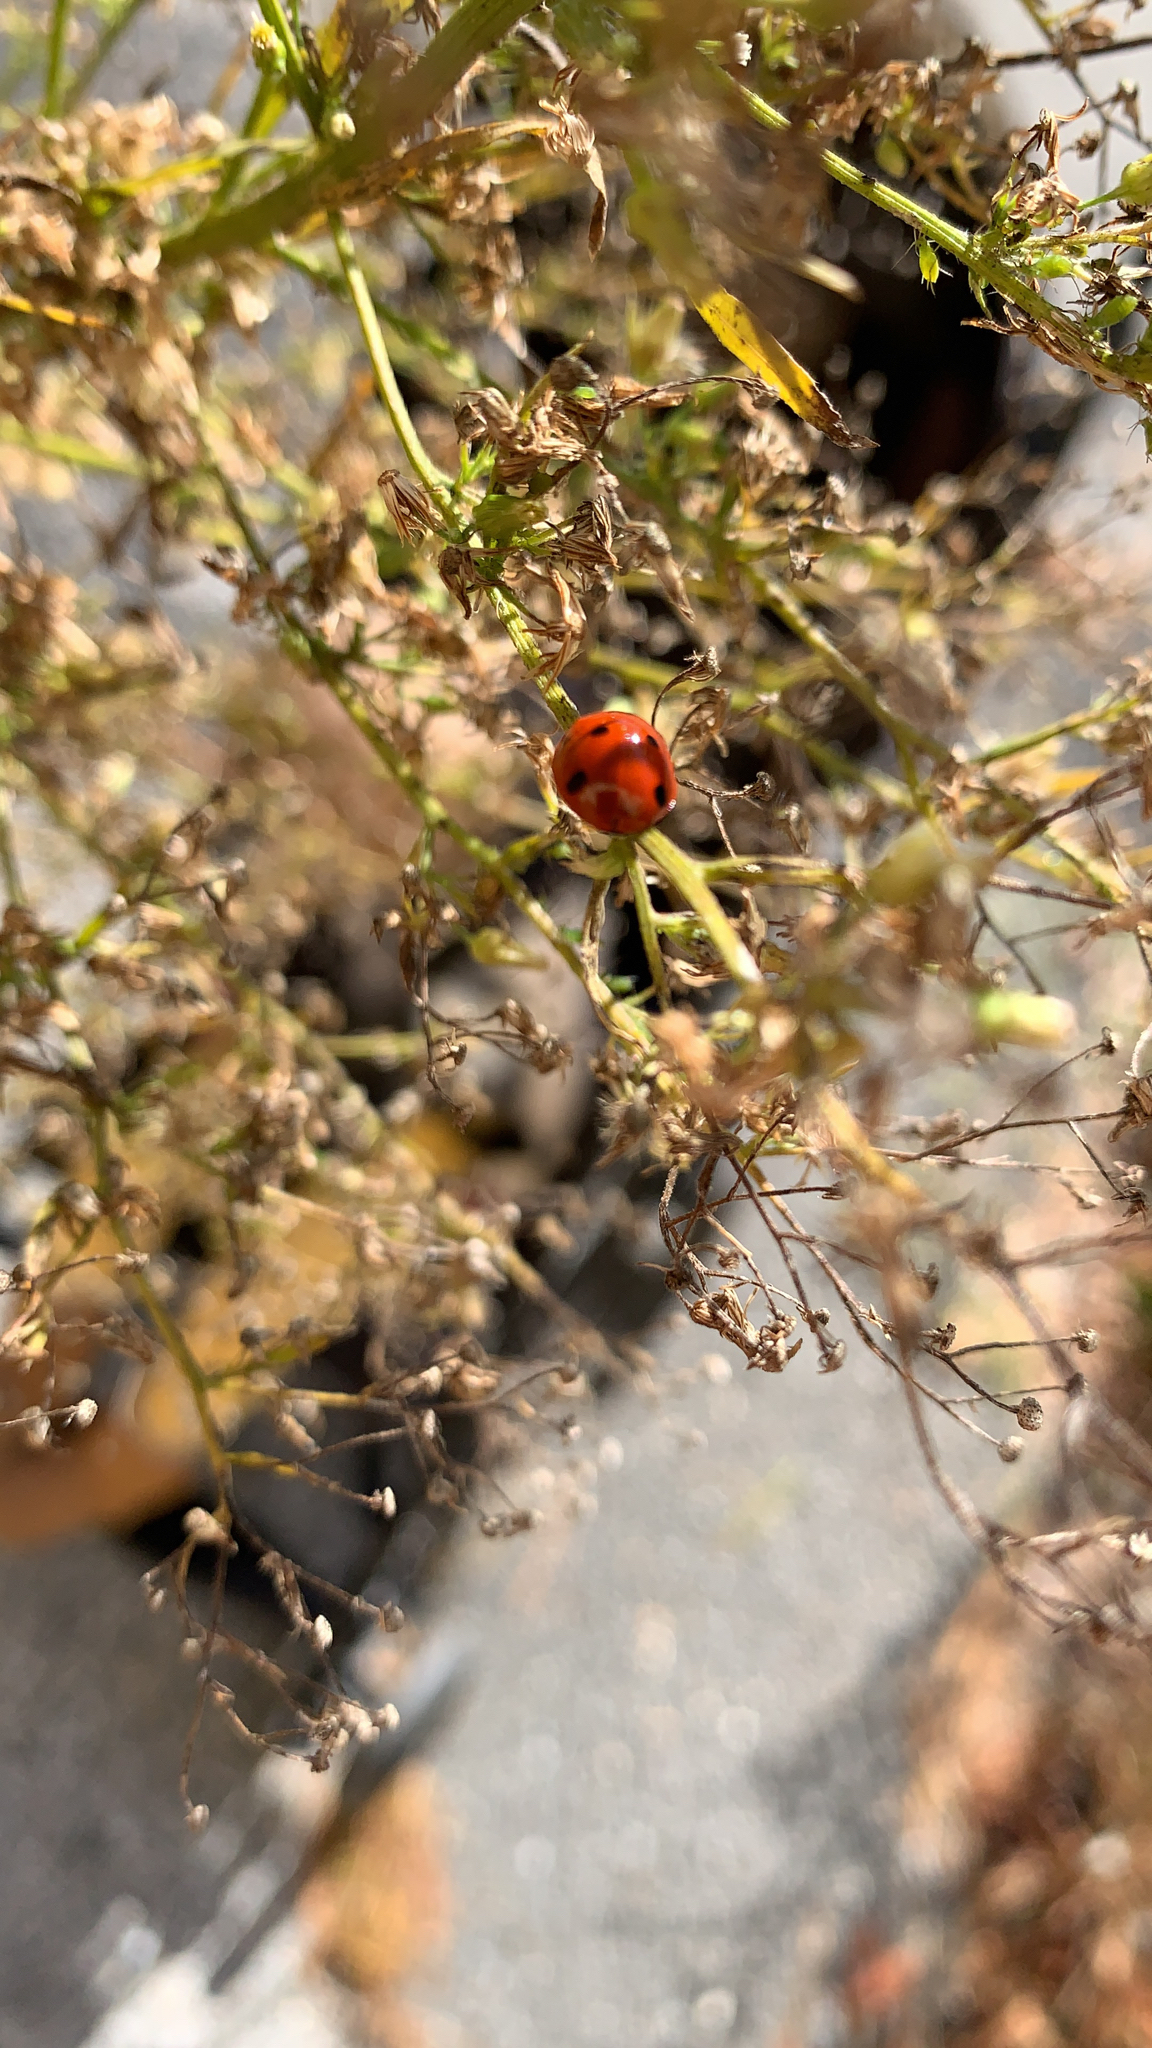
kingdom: Animalia
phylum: Arthropoda
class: Insecta
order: Coleoptera
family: Coccinellidae
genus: Coccinella
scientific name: Coccinella septempunctata
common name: Sevenspotted lady beetle
